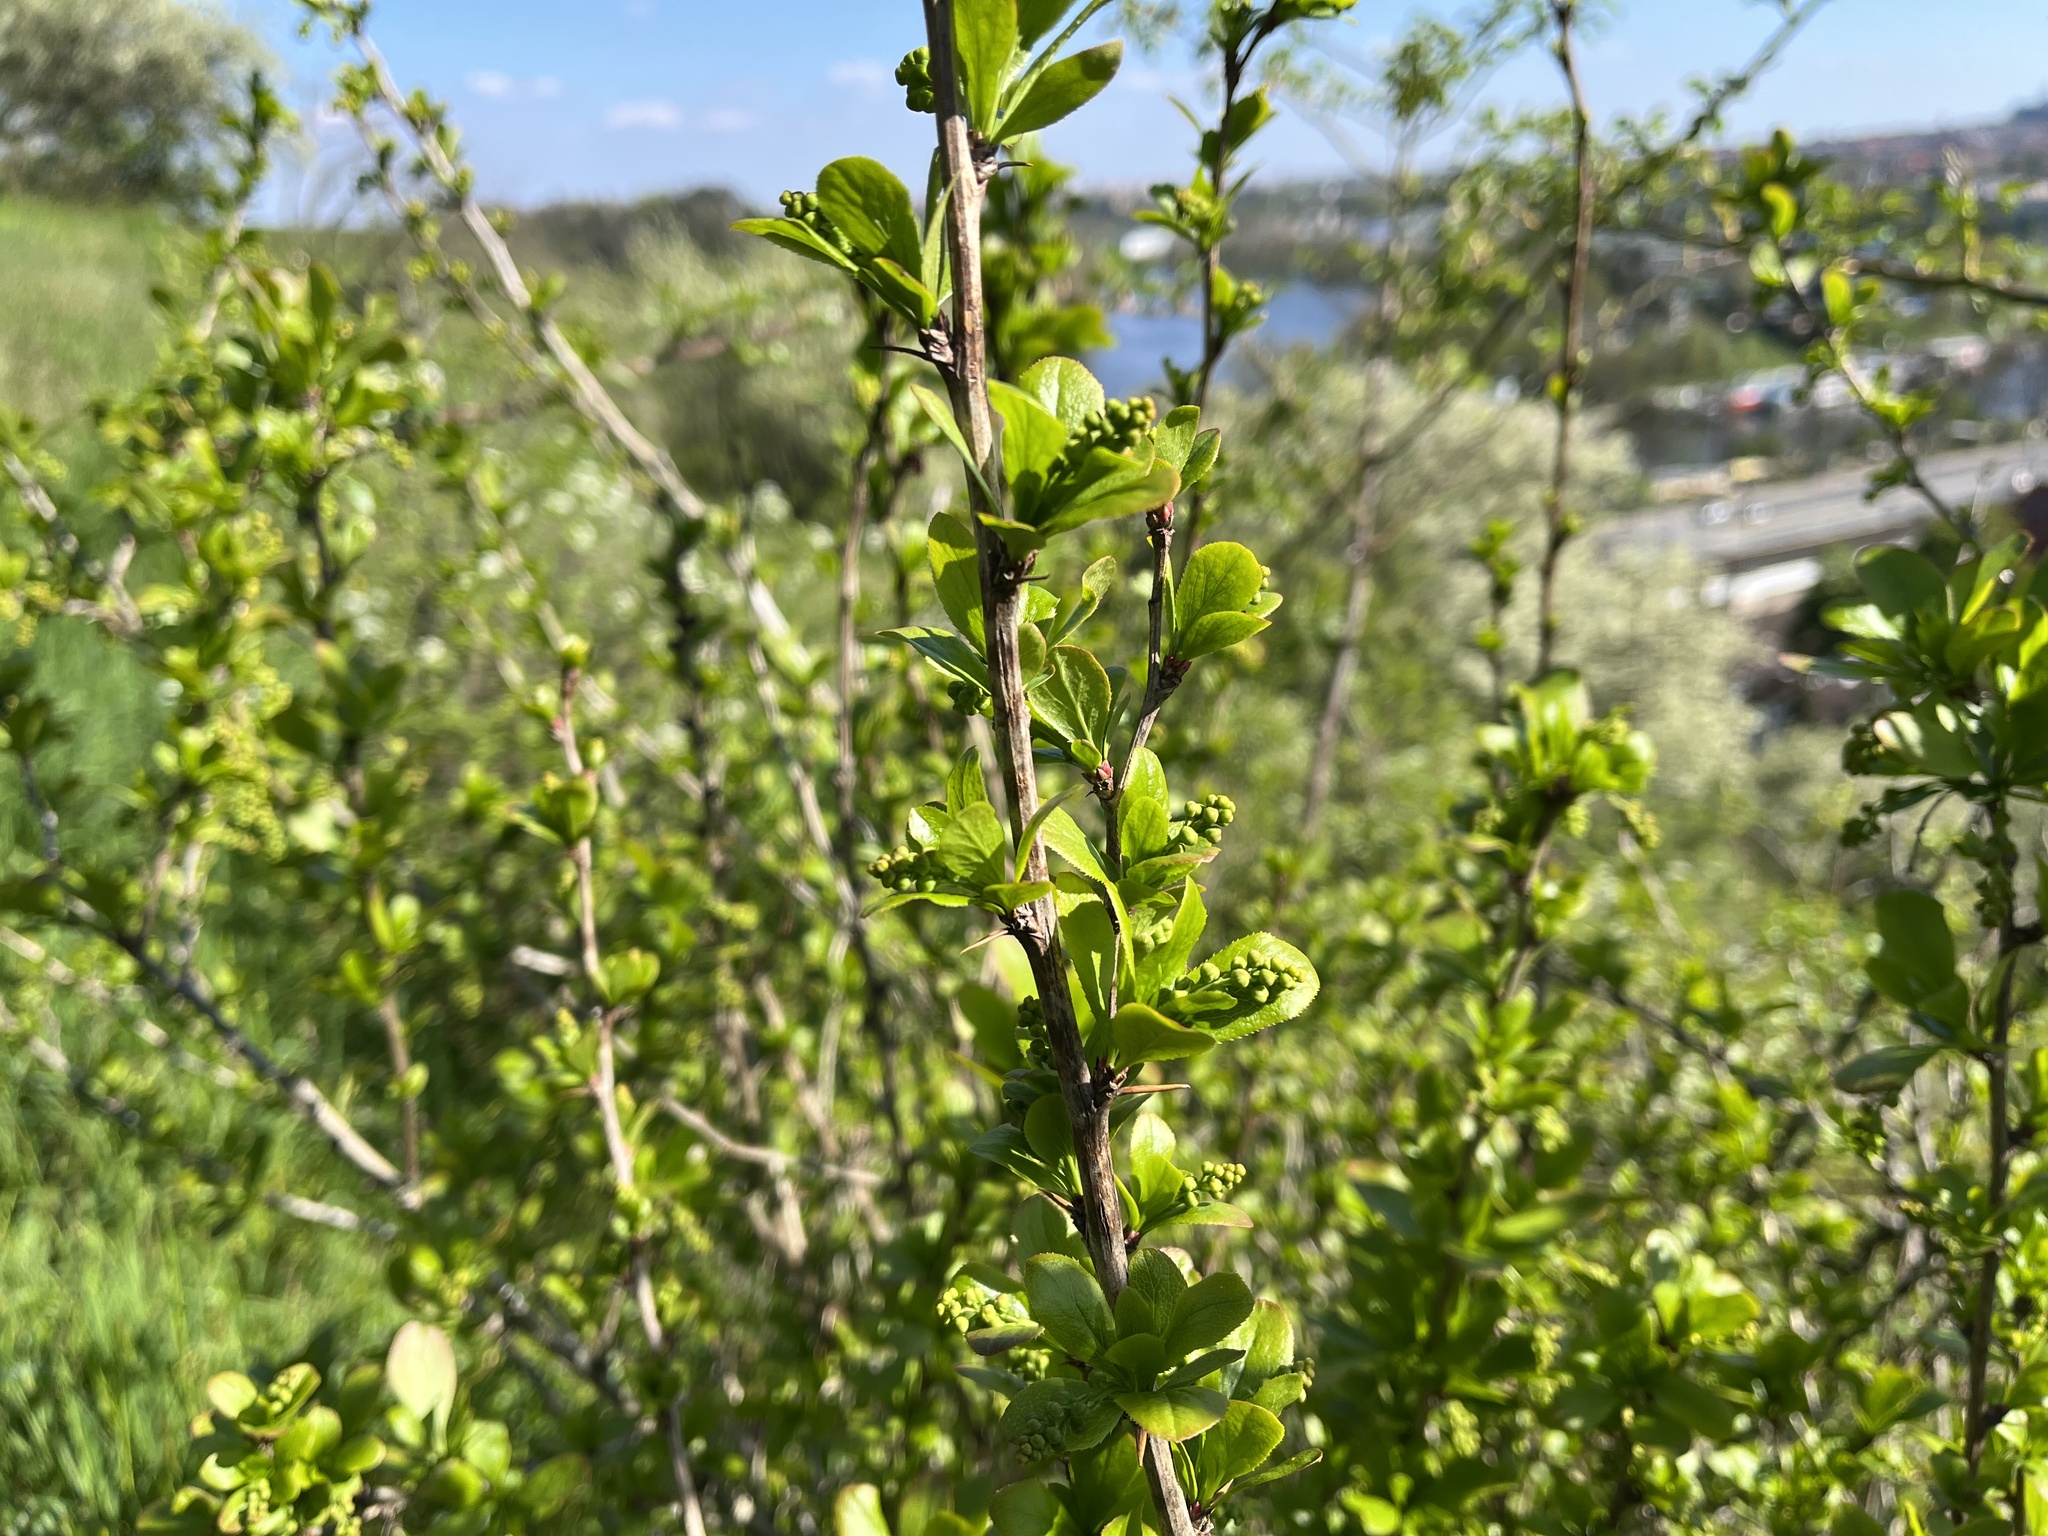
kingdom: Plantae
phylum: Tracheophyta
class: Magnoliopsida
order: Ranunculales
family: Berberidaceae
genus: Berberis
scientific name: Berberis vulgaris
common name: Barberry
